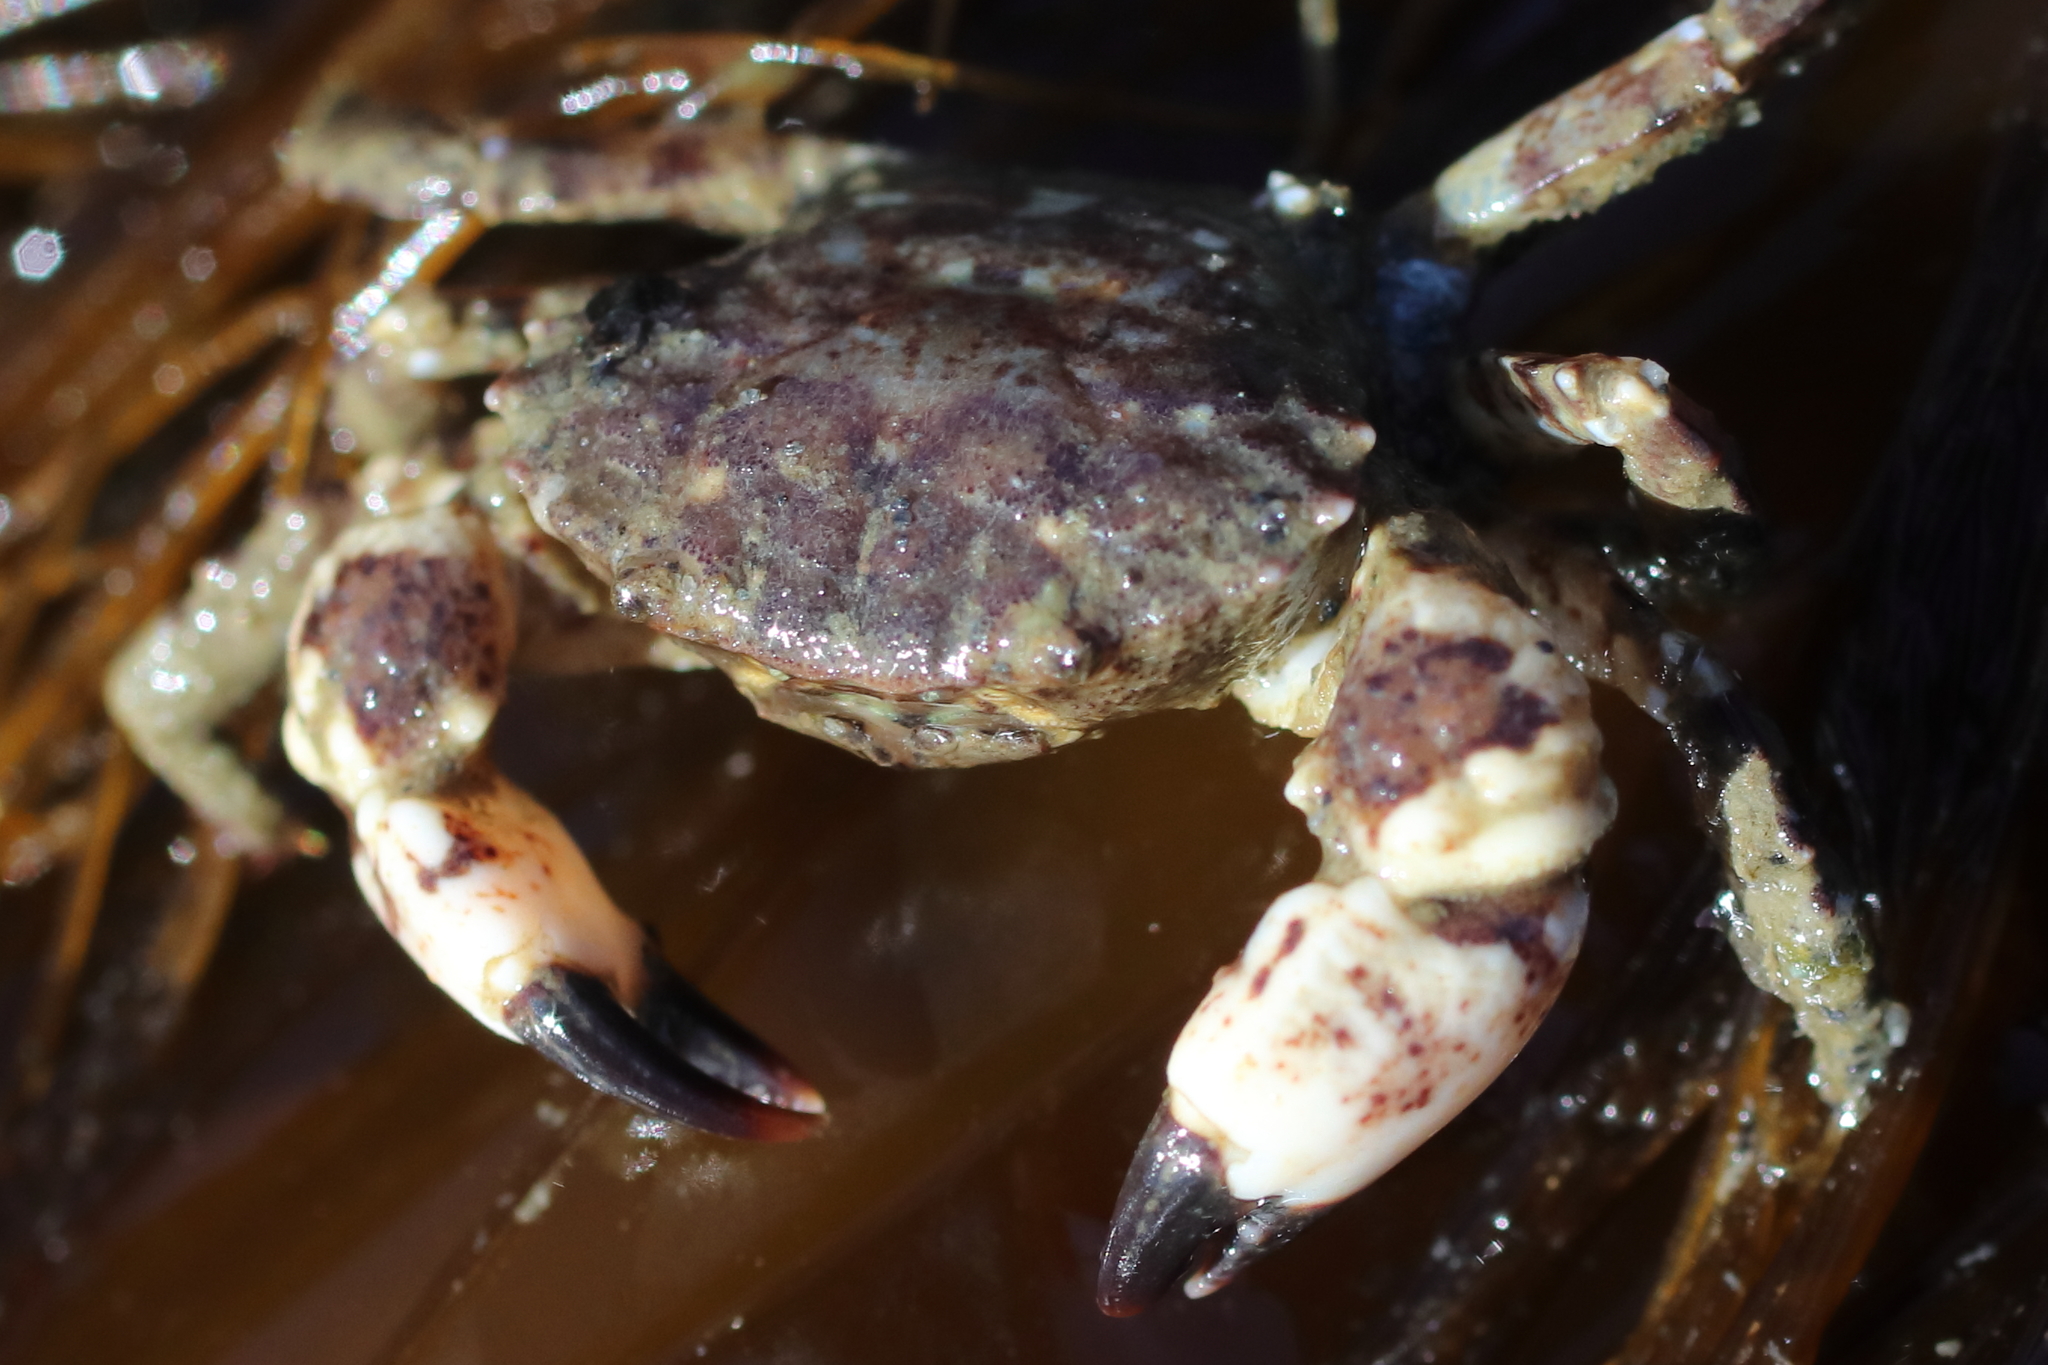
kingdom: Animalia
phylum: Arthropoda
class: Malacostraca
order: Decapoda
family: Panopeidae
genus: Lophopanopeus
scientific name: Lophopanopeus bellus
